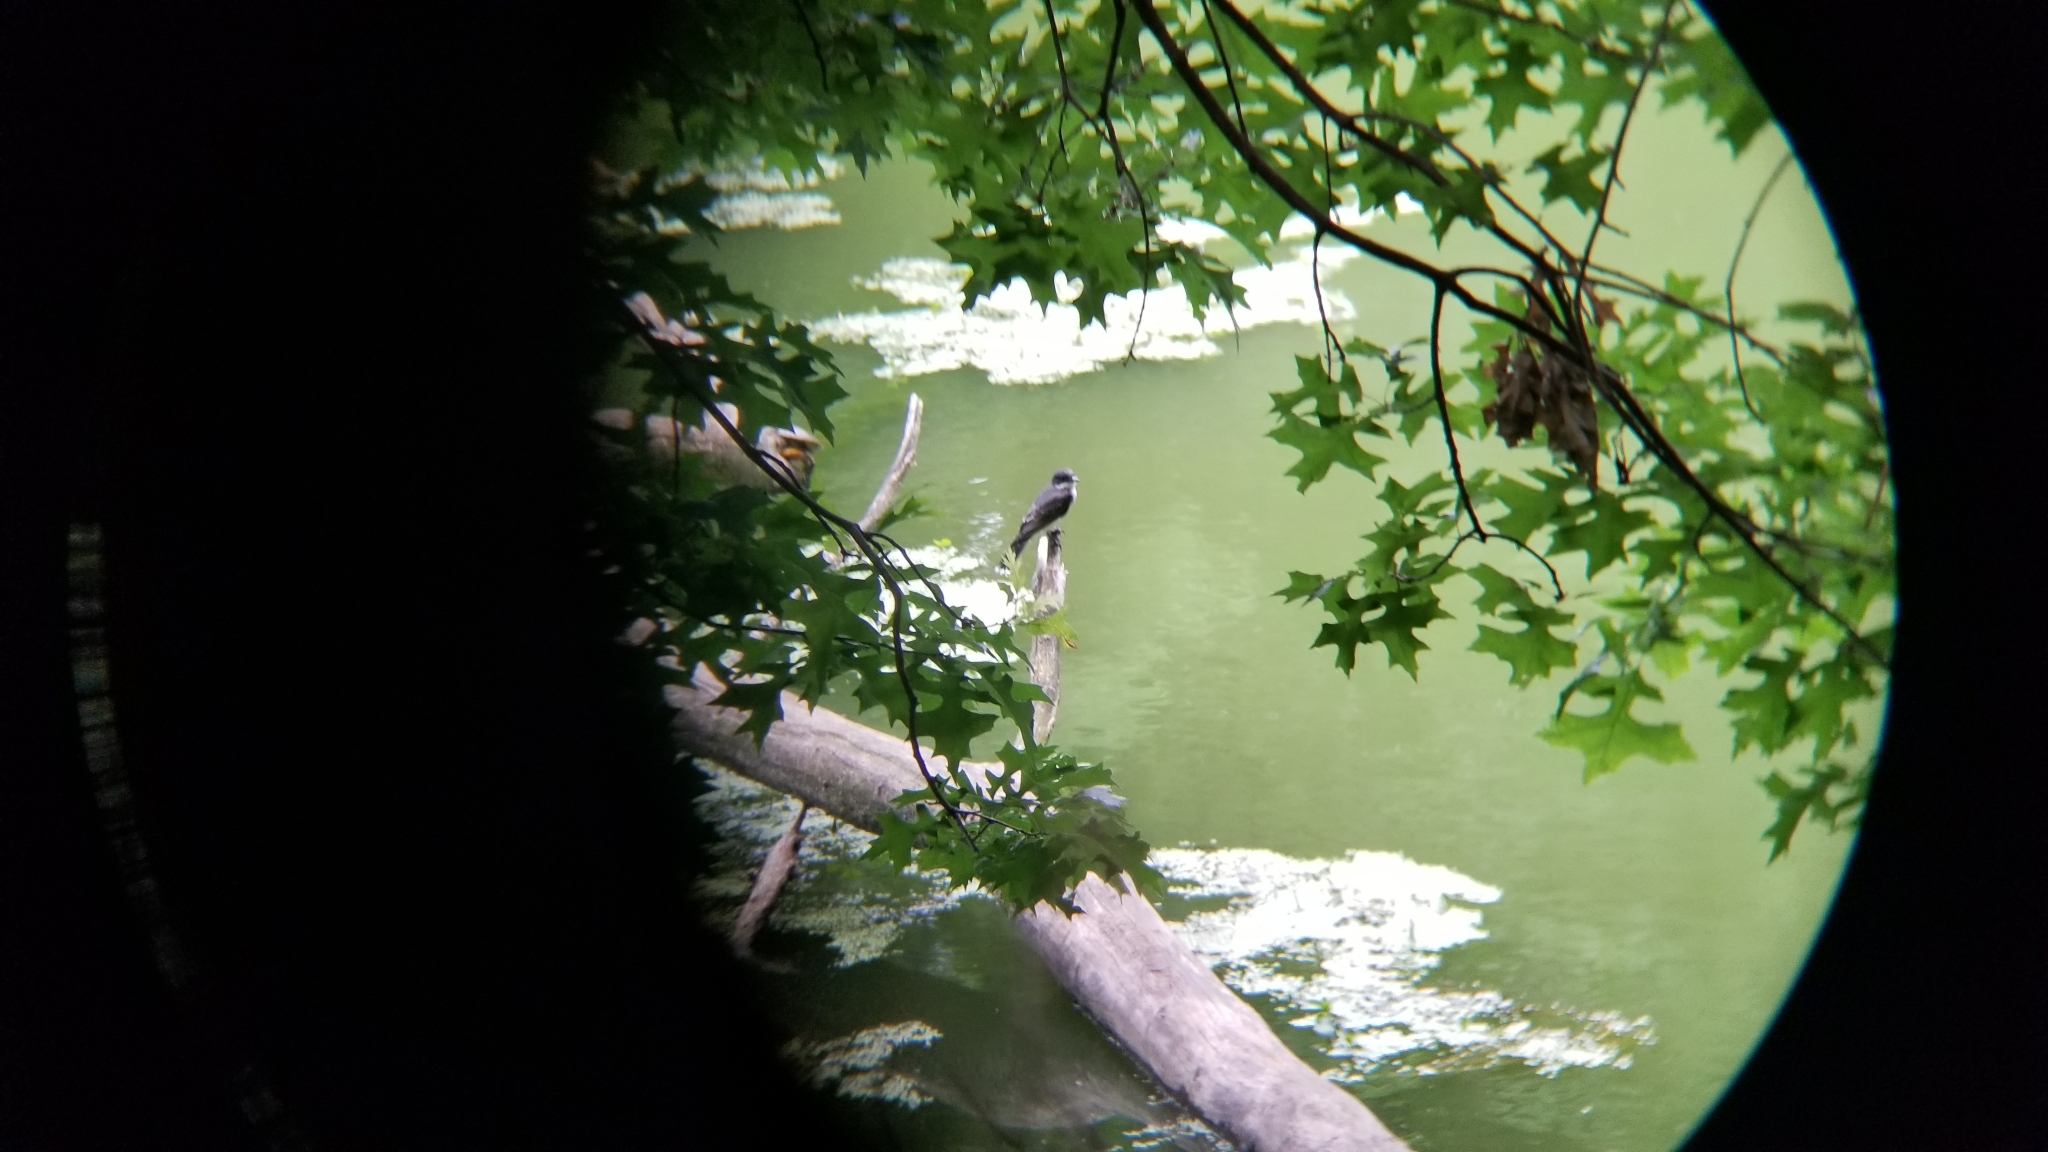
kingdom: Animalia
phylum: Chordata
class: Aves
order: Passeriformes
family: Tyrannidae
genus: Tyrannus
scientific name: Tyrannus tyrannus
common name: Eastern kingbird
